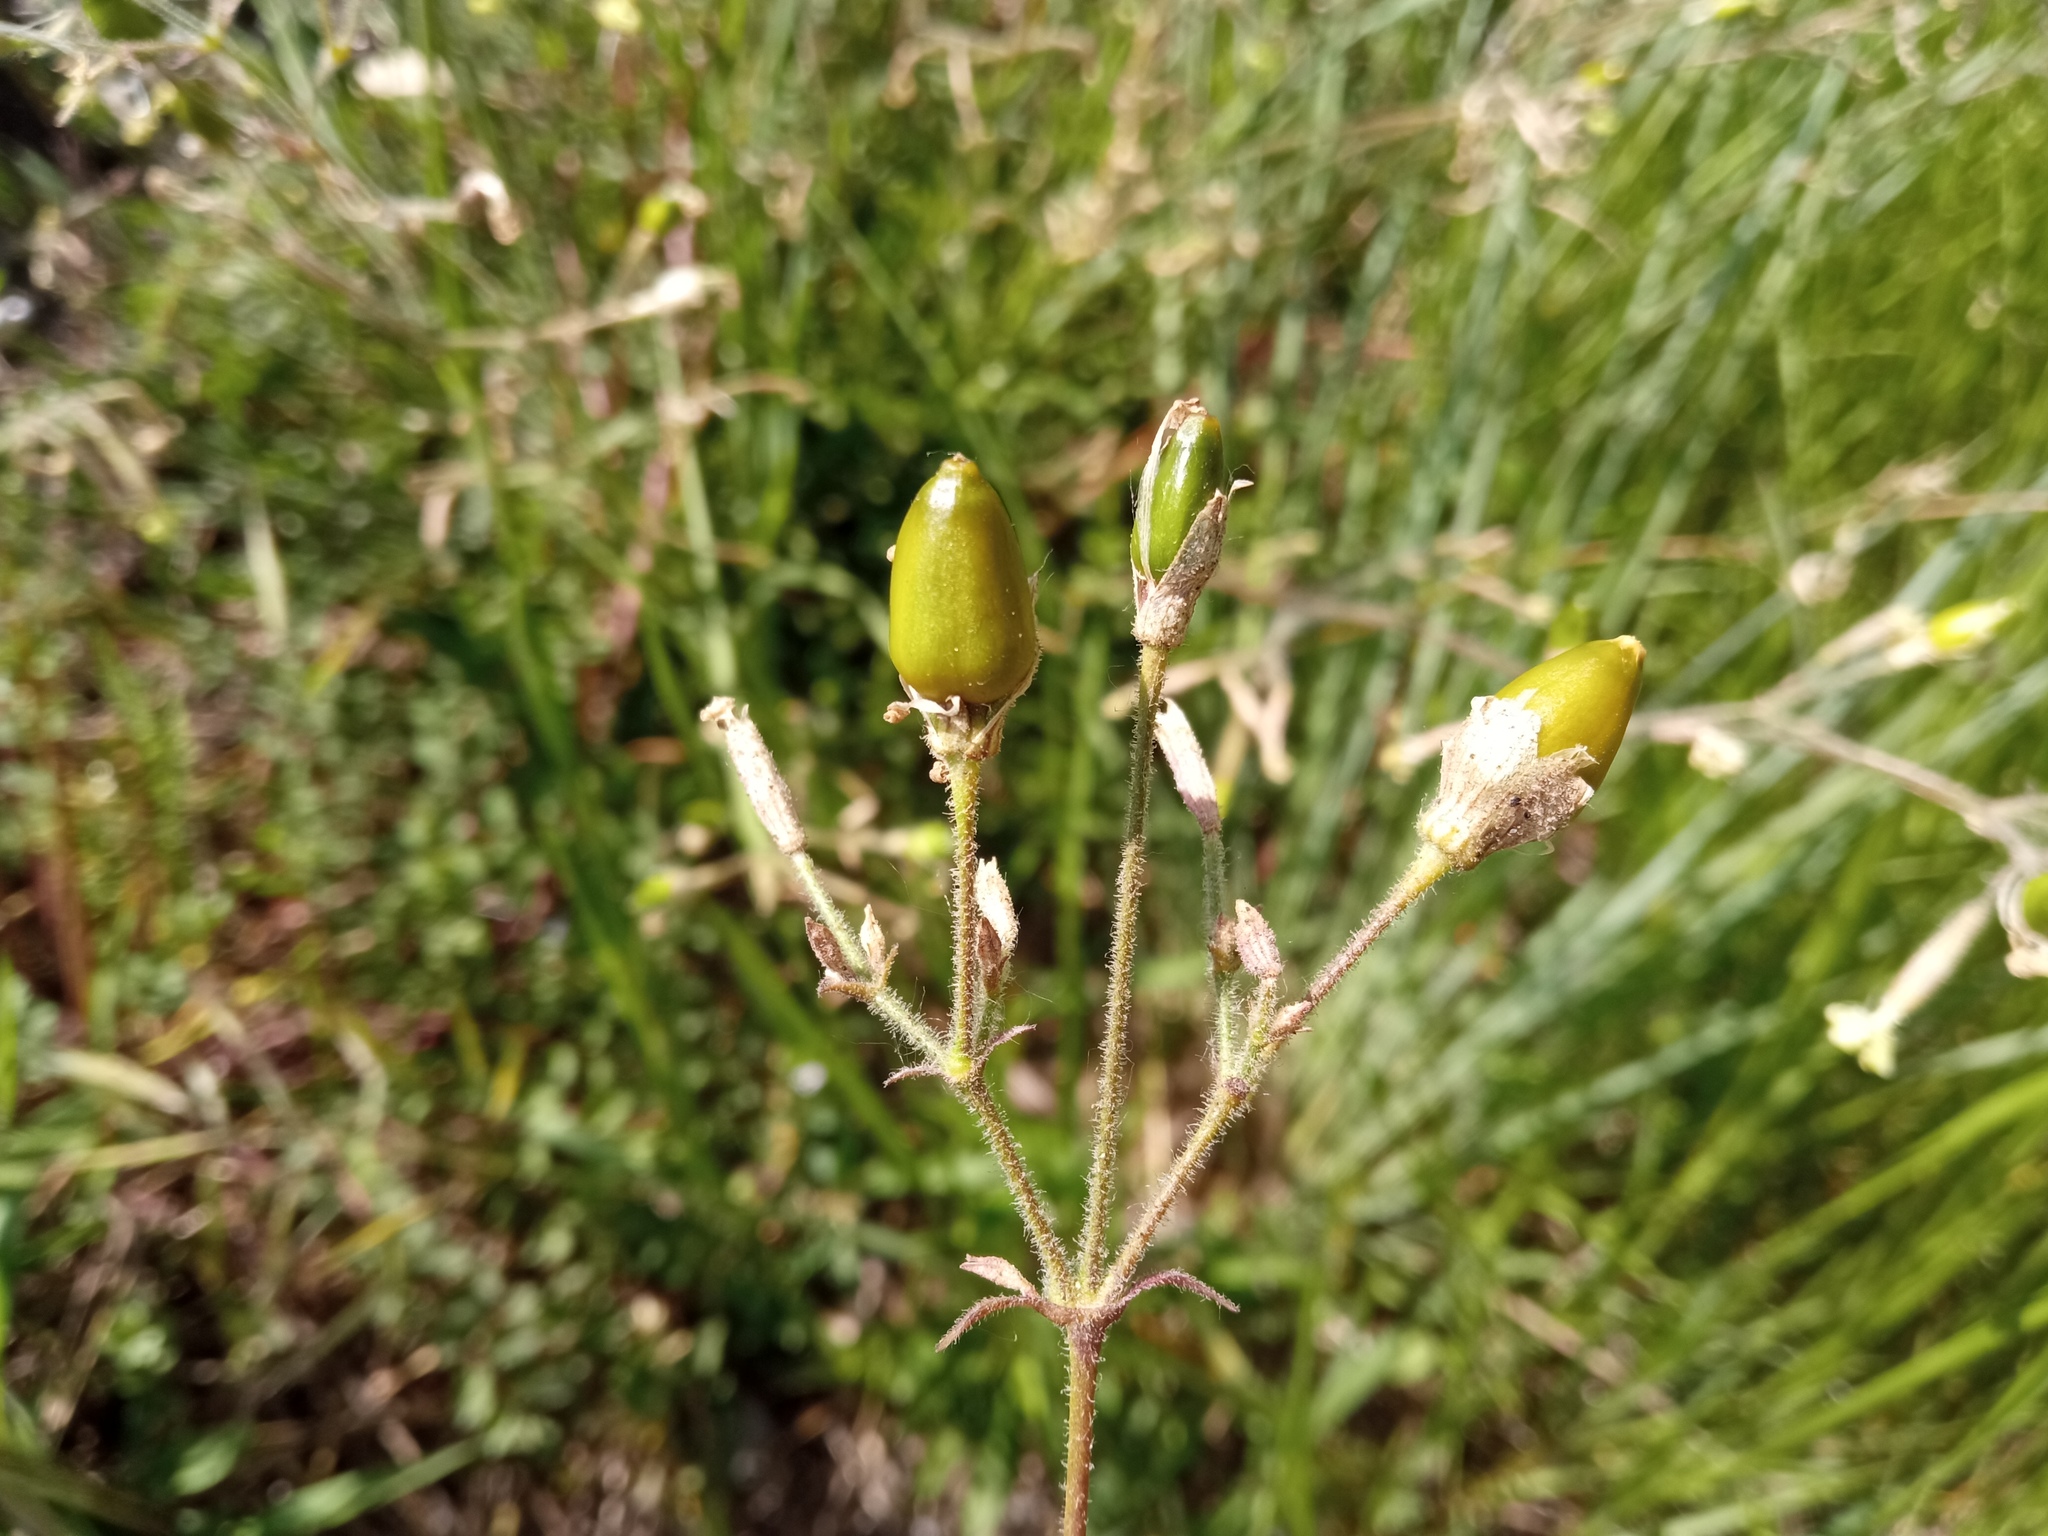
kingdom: Plantae
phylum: Tracheophyta
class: Magnoliopsida
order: Caryophyllales
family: Caryophyllaceae
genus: Silene
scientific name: Silene nutans
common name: Nottingham catchfly
